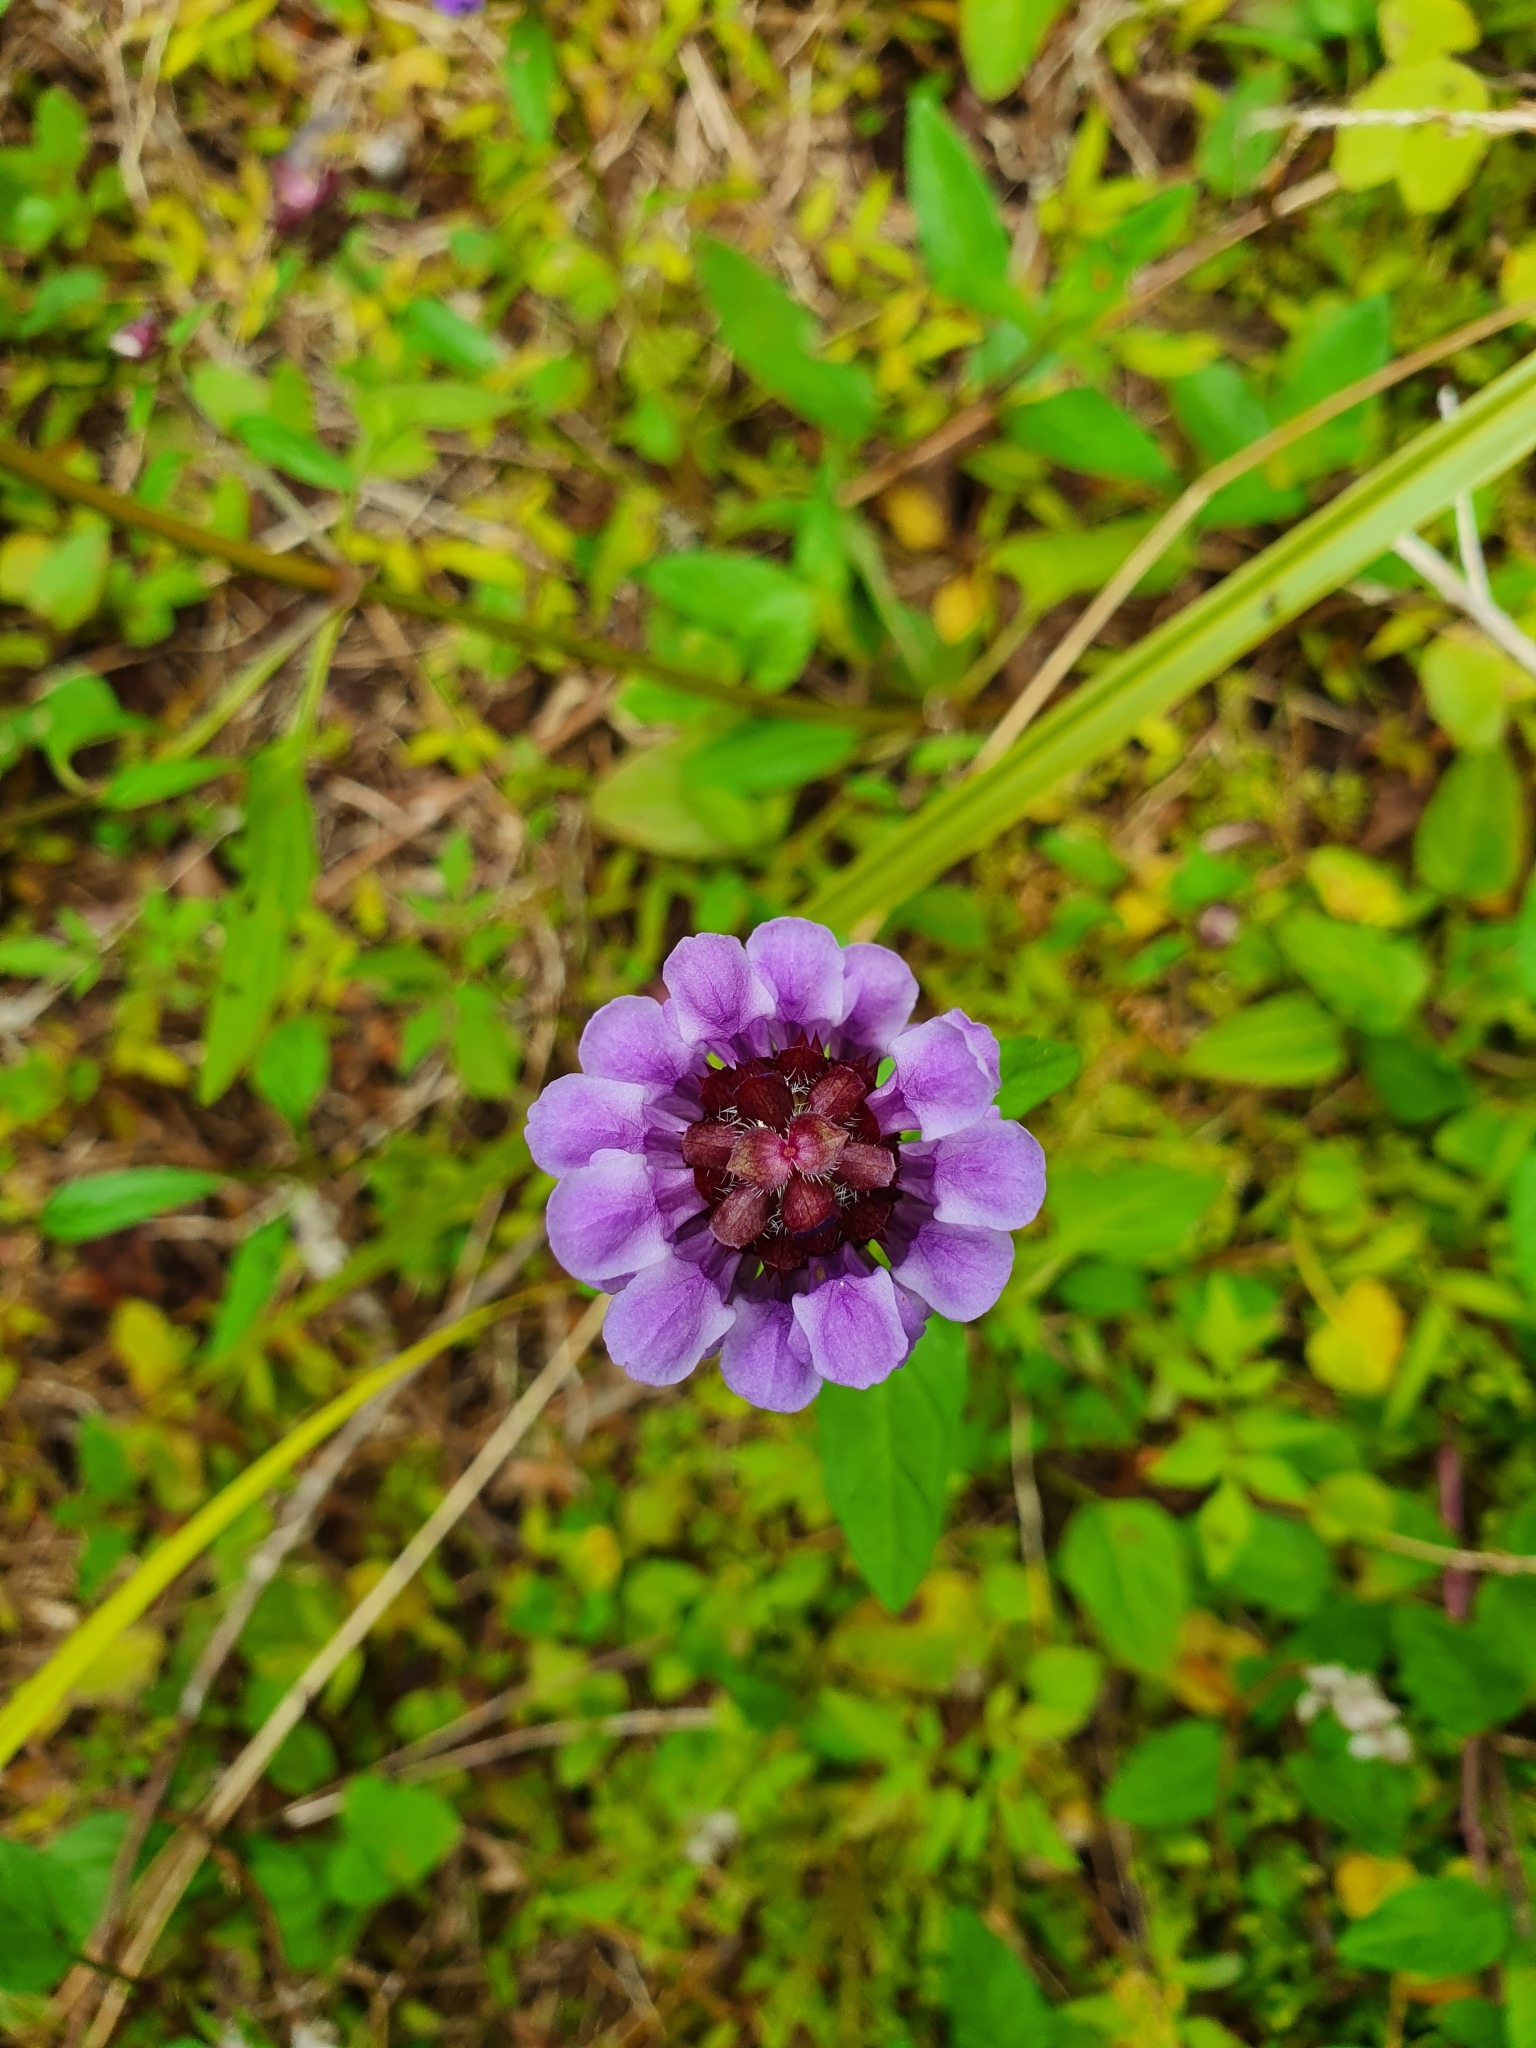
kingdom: Plantae
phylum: Tracheophyta
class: Magnoliopsida
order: Lamiales
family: Lamiaceae
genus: Prunella
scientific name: Prunella vulgaris
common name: Heal-all
